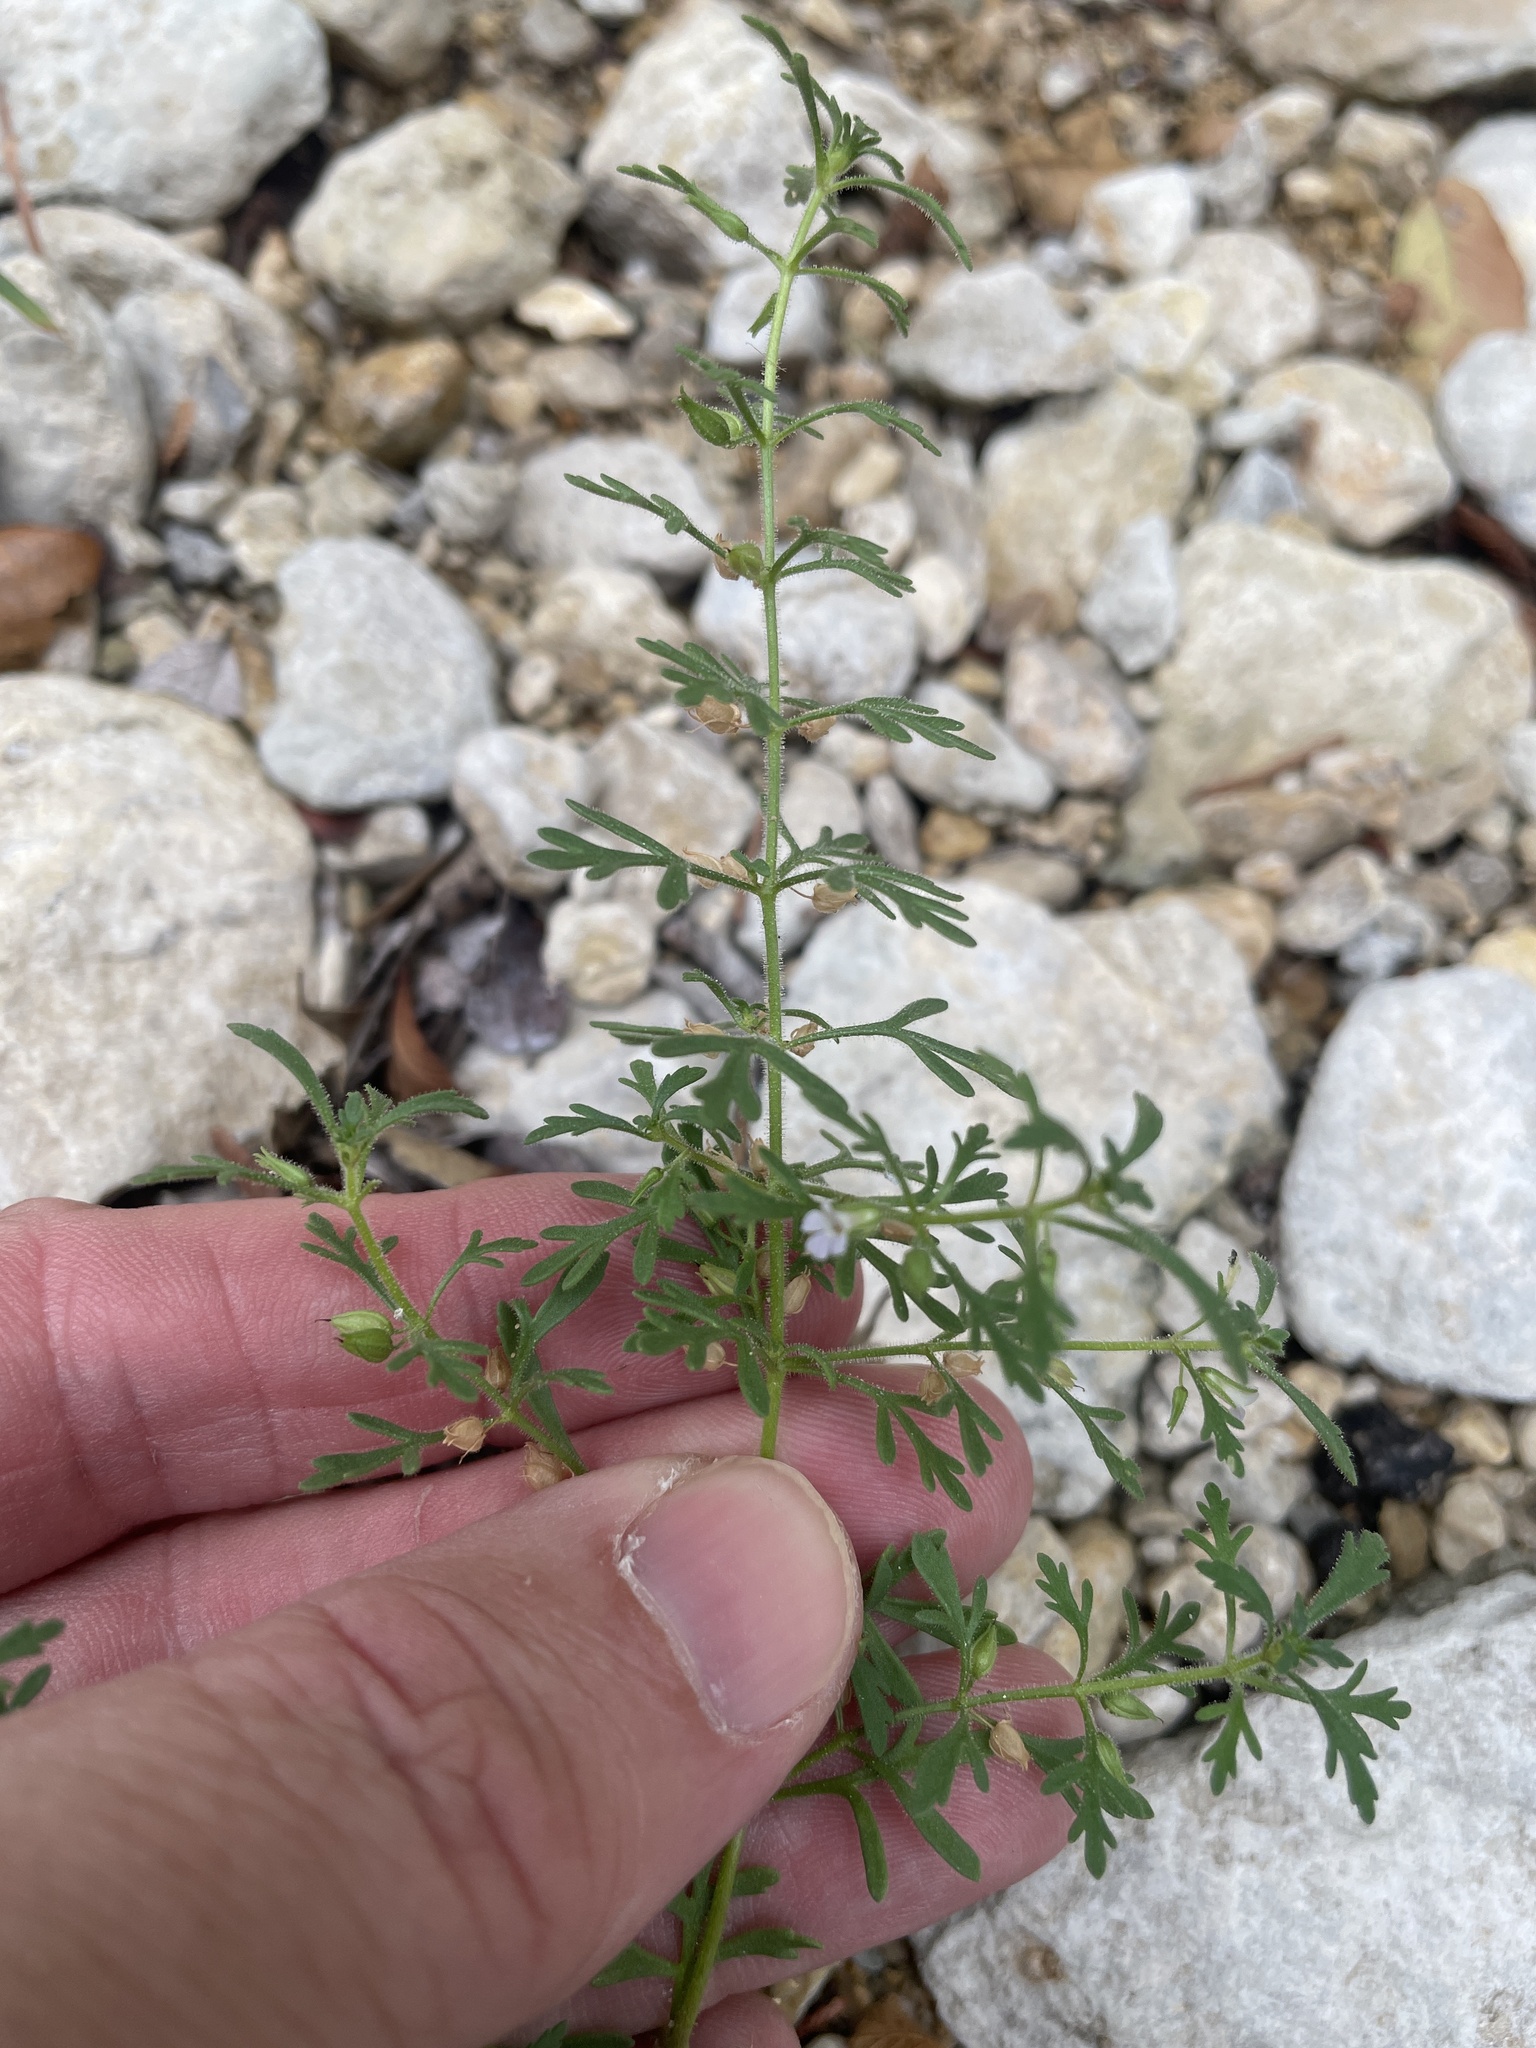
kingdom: Plantae
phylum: Tracheophyta
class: Magnoliopsida
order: Lamiales
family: Plantaginaceae
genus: Leucospora
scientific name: Leucospora multifida
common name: Narrow-leaf paleseed
